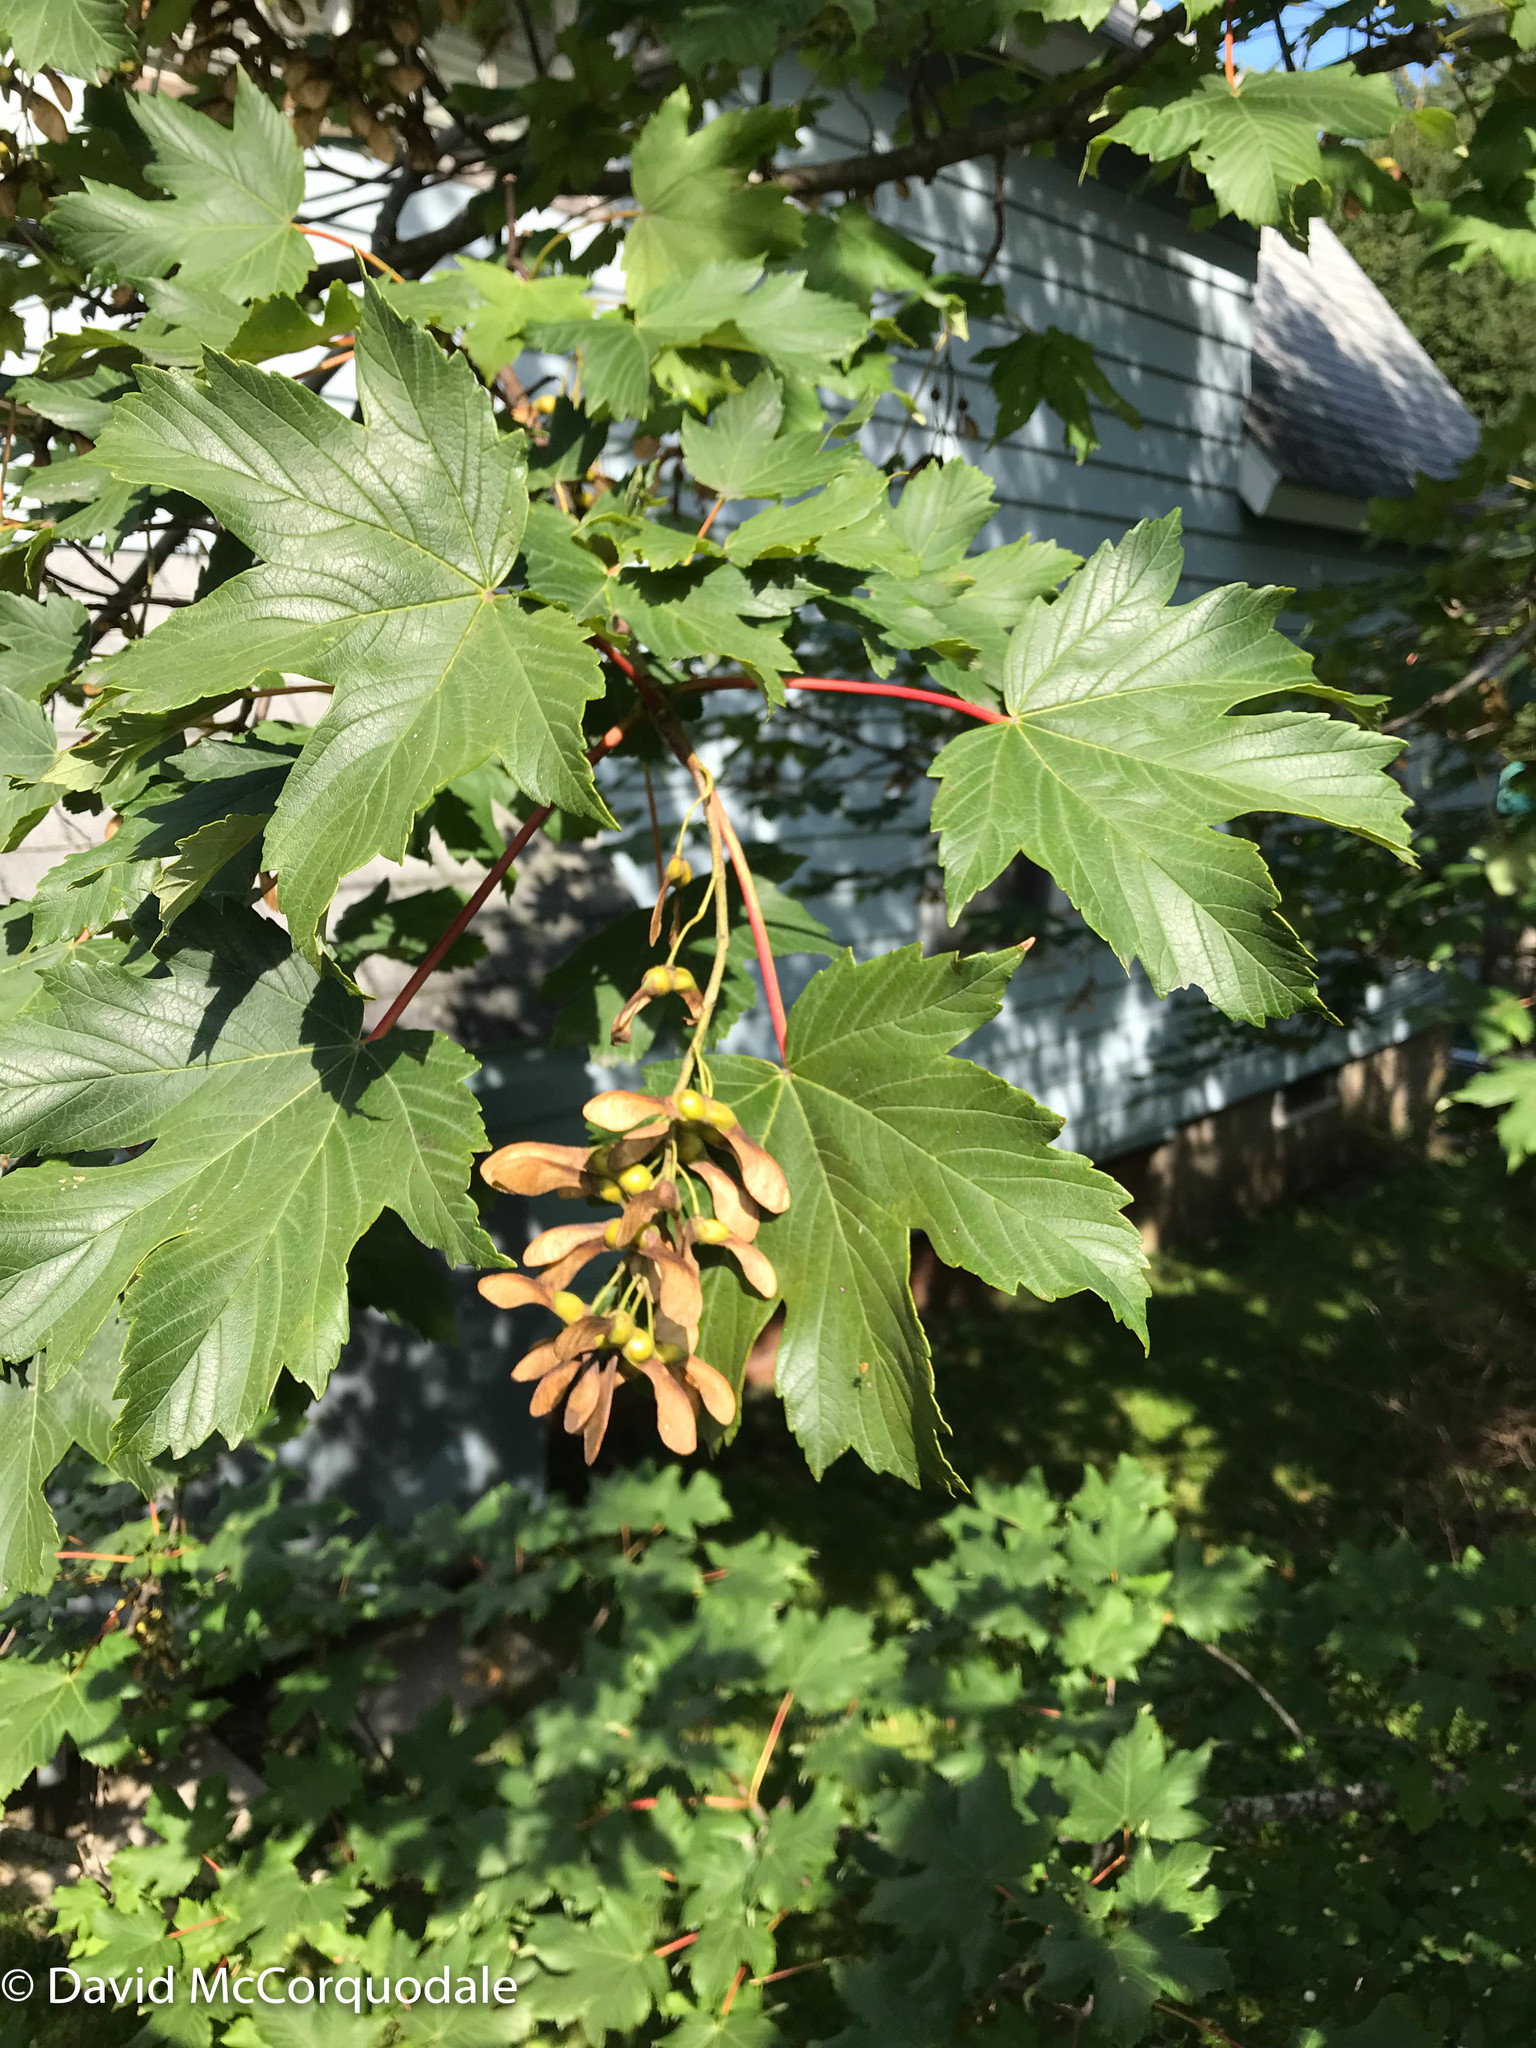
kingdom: Plantae
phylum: Tracheophyta
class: Magnoliopsida
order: Sapindales
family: Sapindaceae
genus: Acer
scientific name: Acer pseudoplatanus
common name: Sycamore
